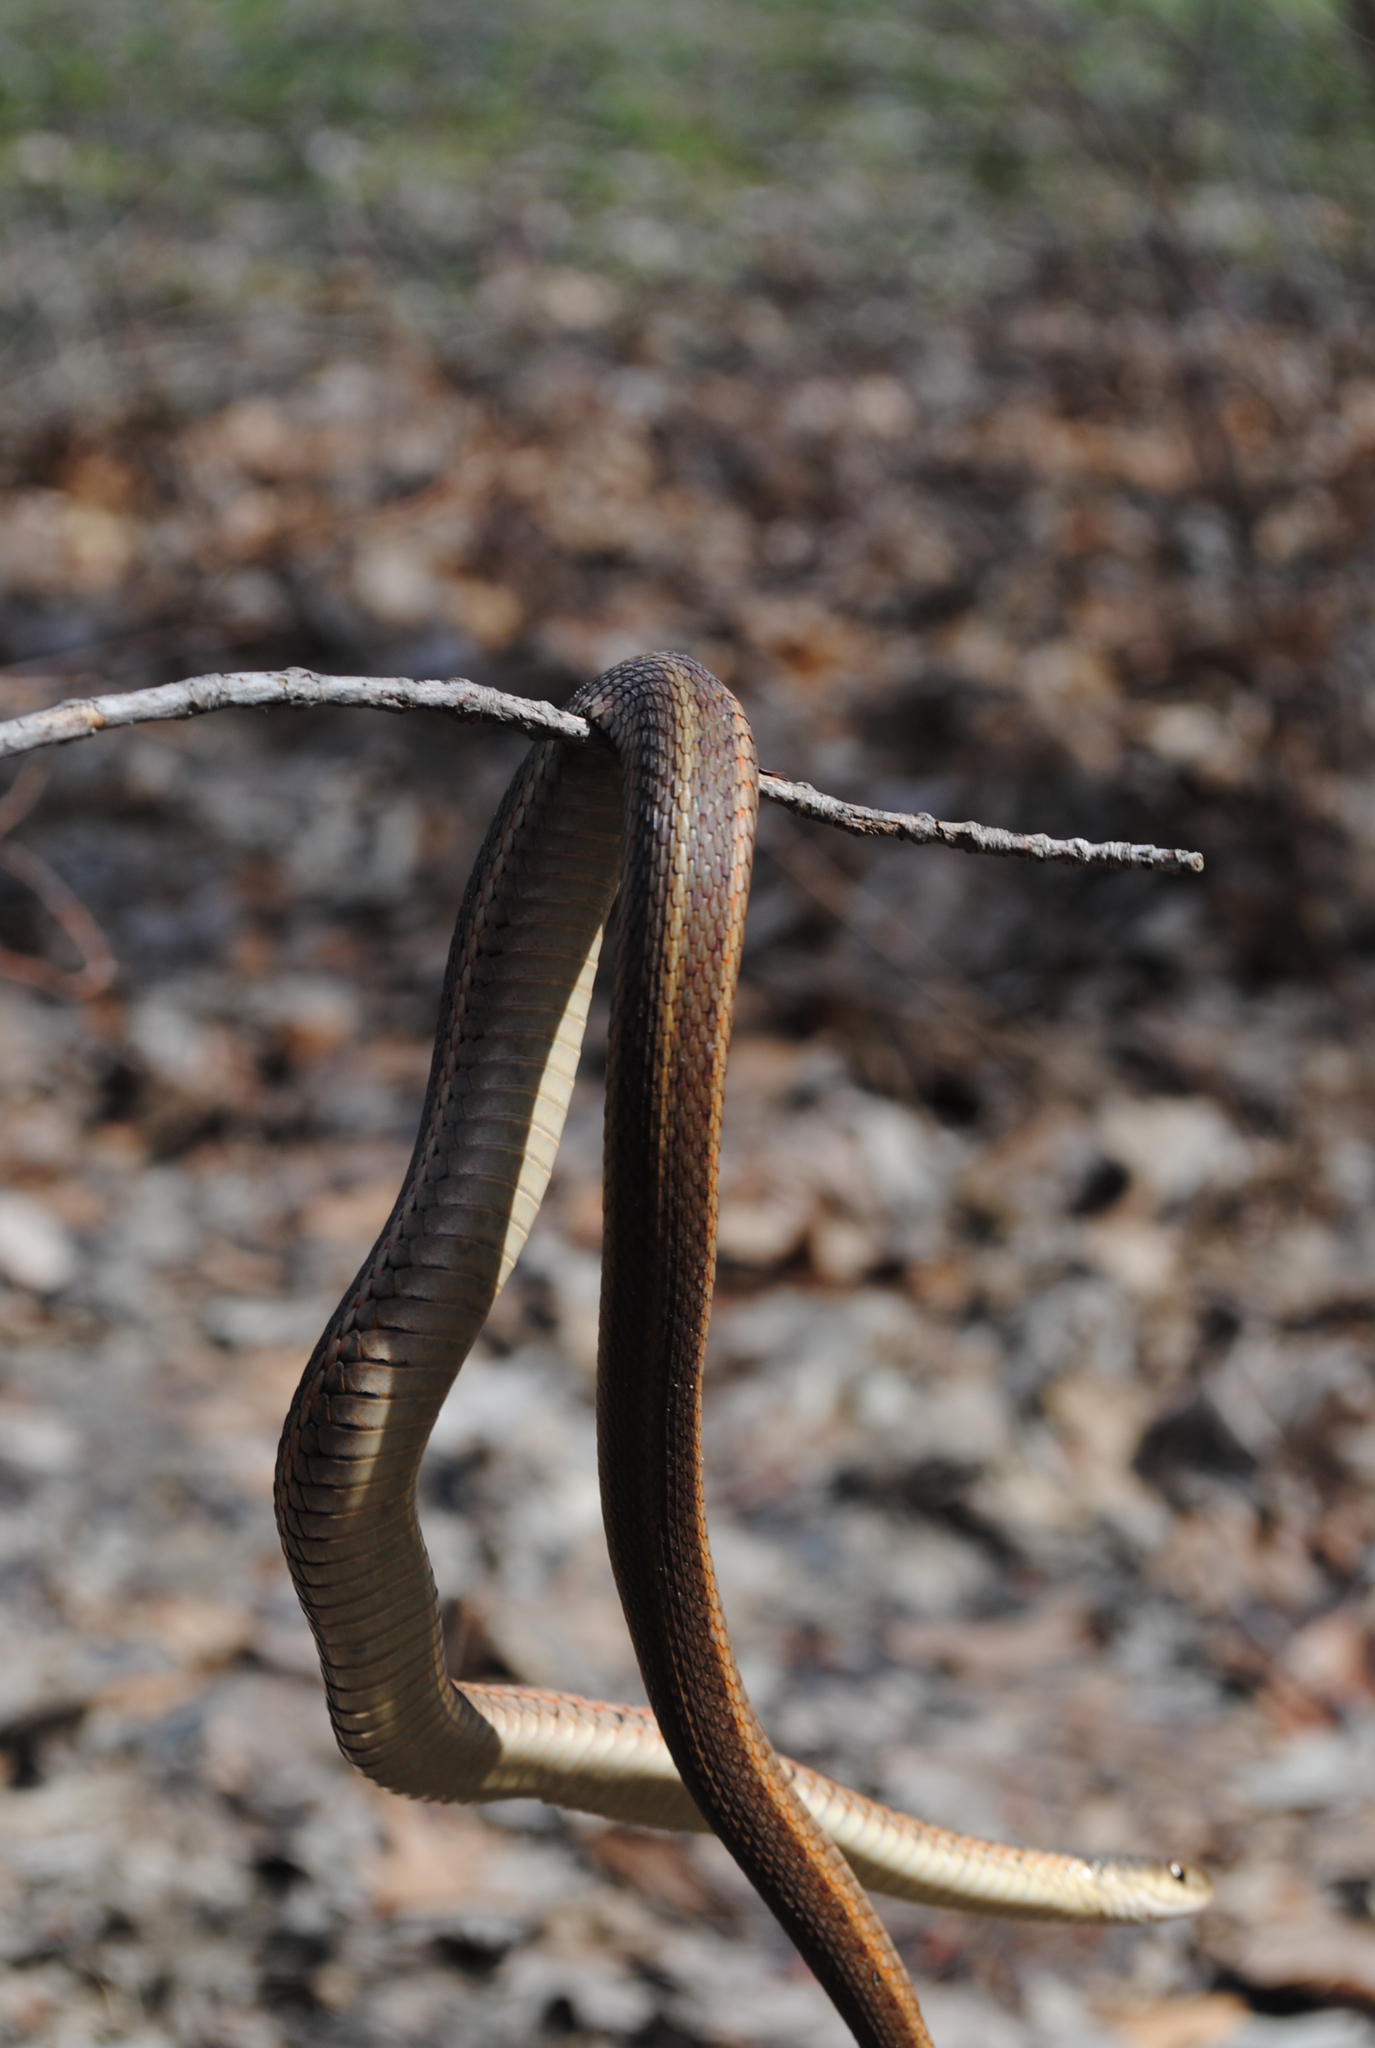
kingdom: Animalia
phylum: Chordata
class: Squamata
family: Colubridae
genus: Thamnophis
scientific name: Thamnophis sirtalis
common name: Common garter snake
